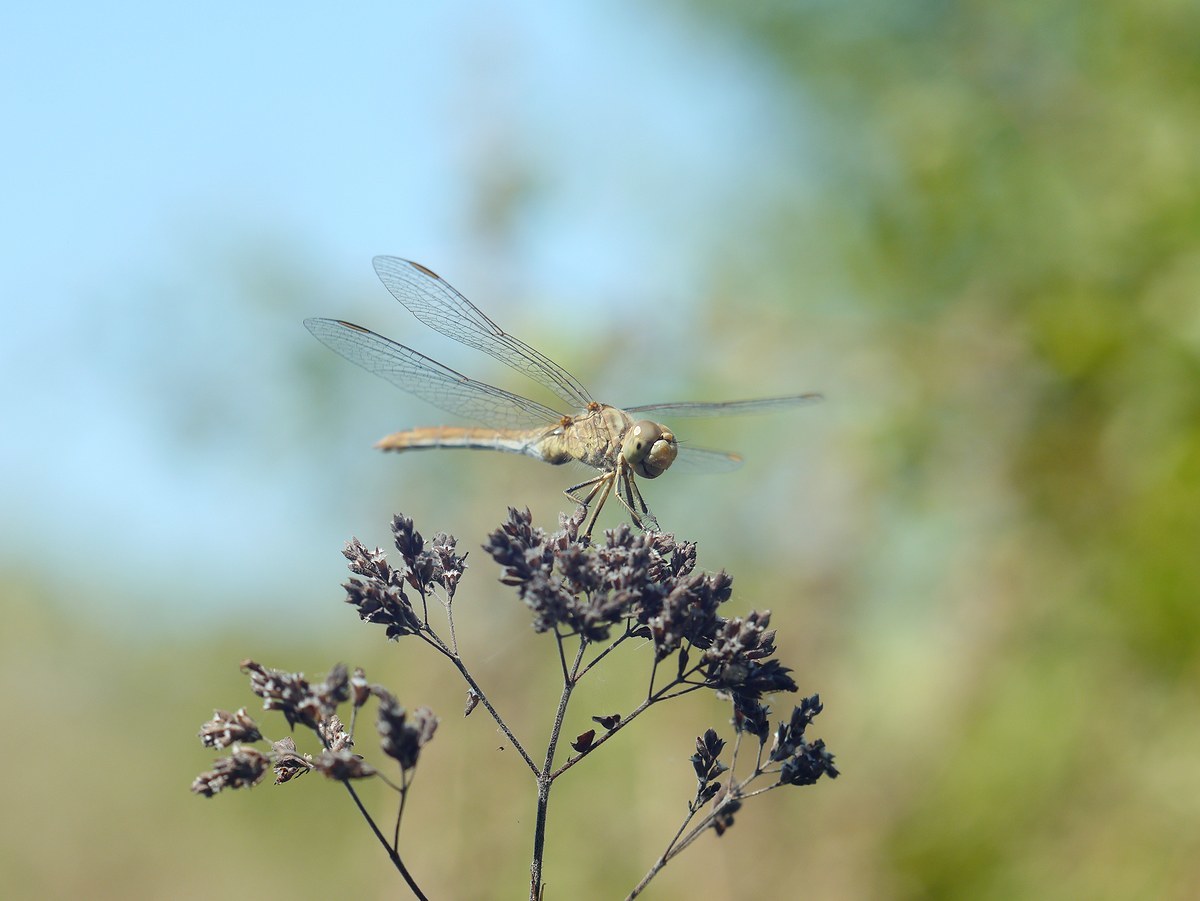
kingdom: Animalia
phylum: Arthropoda
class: Insecta
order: Odonata
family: Libellulidae
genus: Sympetrum
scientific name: Sympetrum meridionale
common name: Southern darter
